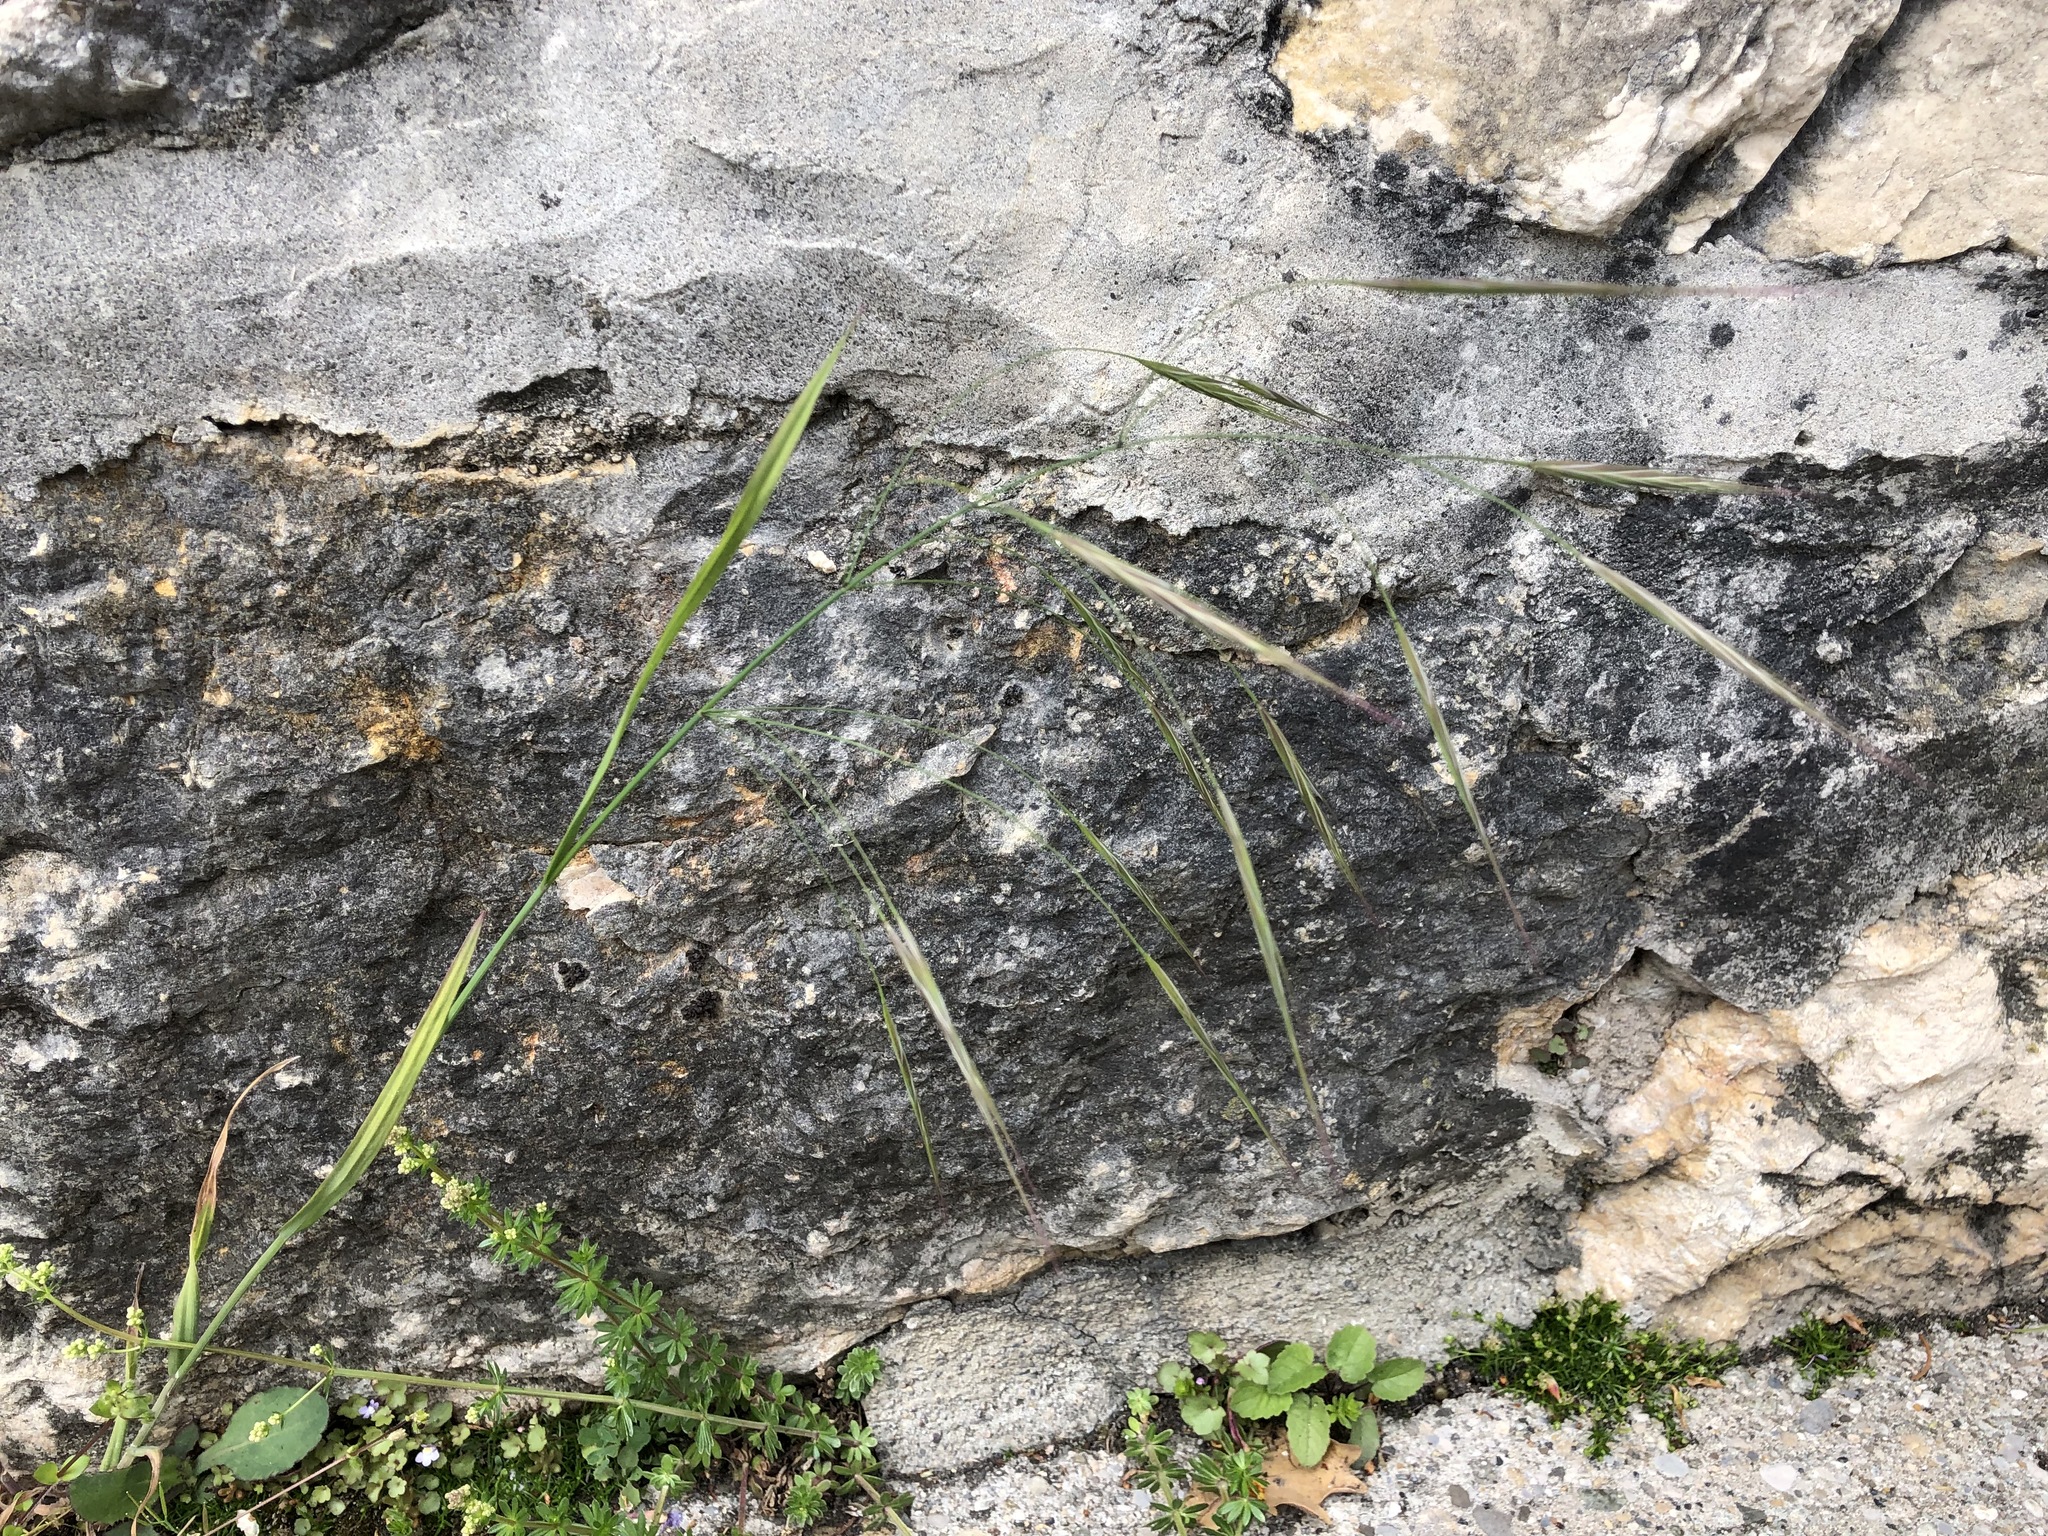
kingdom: Plantae
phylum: Tracheophyta
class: Liliopsida
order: Poales
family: Poaceae
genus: Bromus
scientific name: Bromus sterilis
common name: Poverty brome
